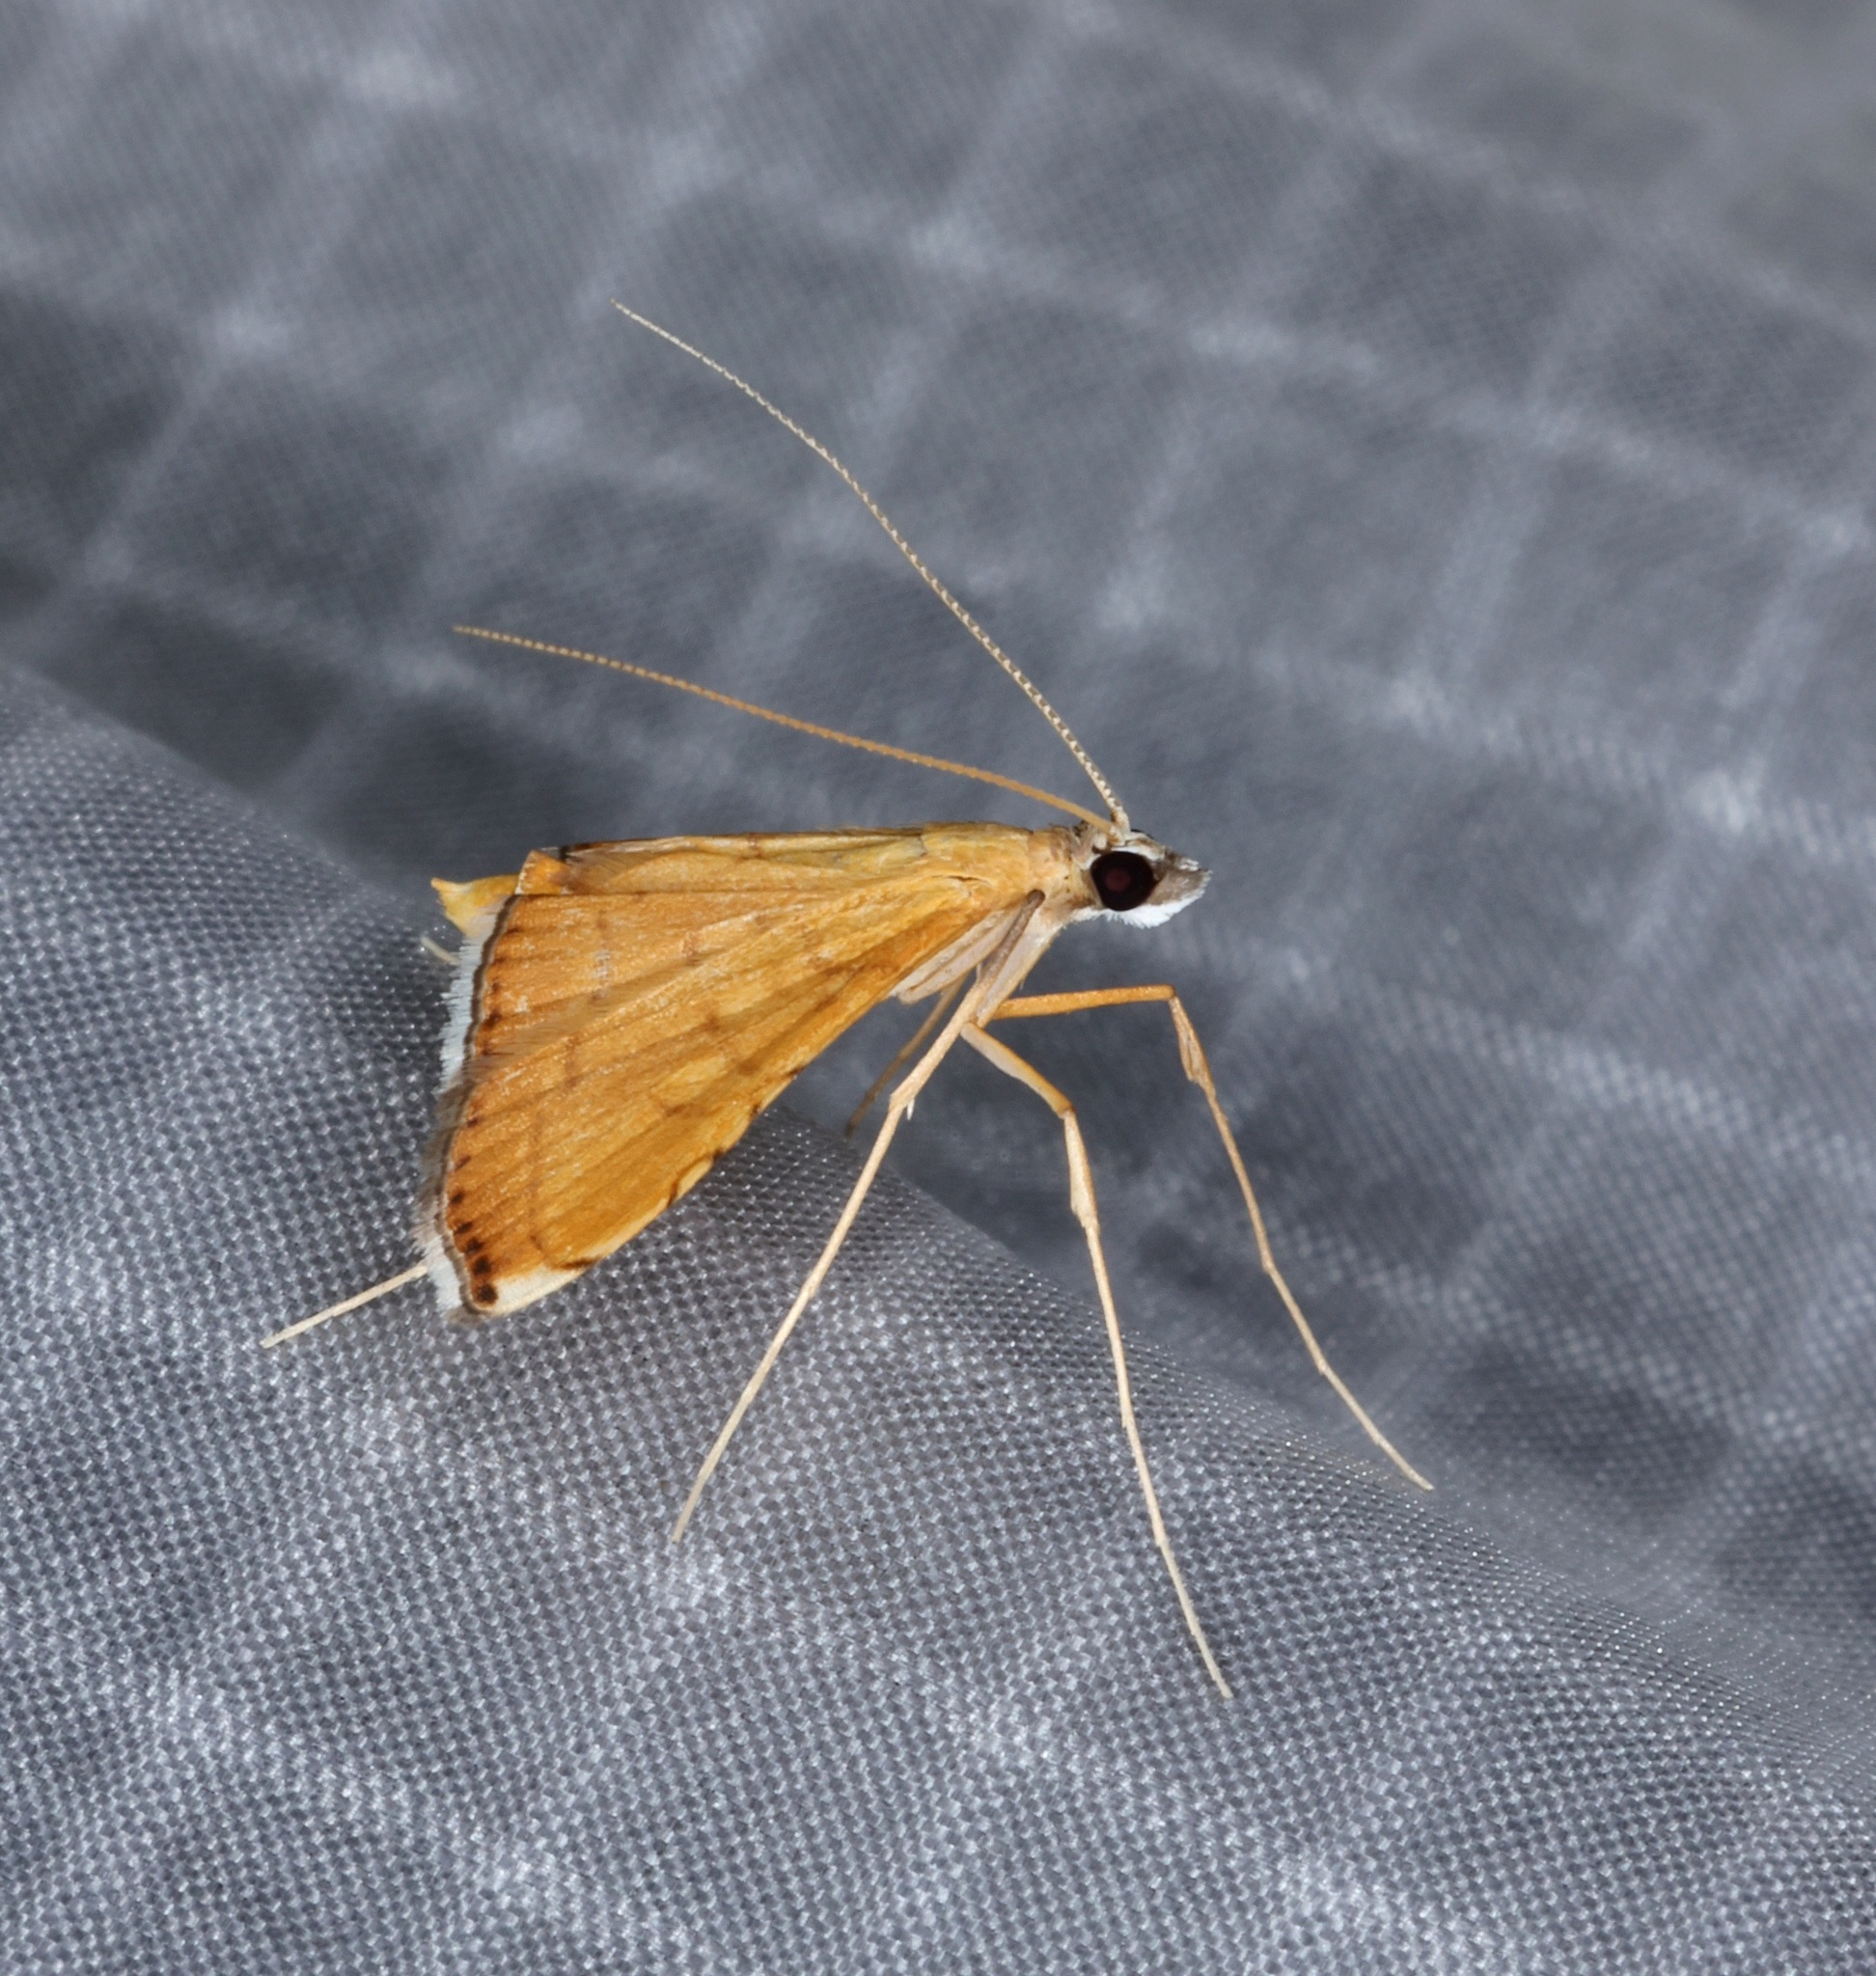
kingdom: Animalia
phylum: Arthropoda
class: Insecta
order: Lepidoptera
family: Crambidae
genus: Mabra
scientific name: Mabra nigriscripta
